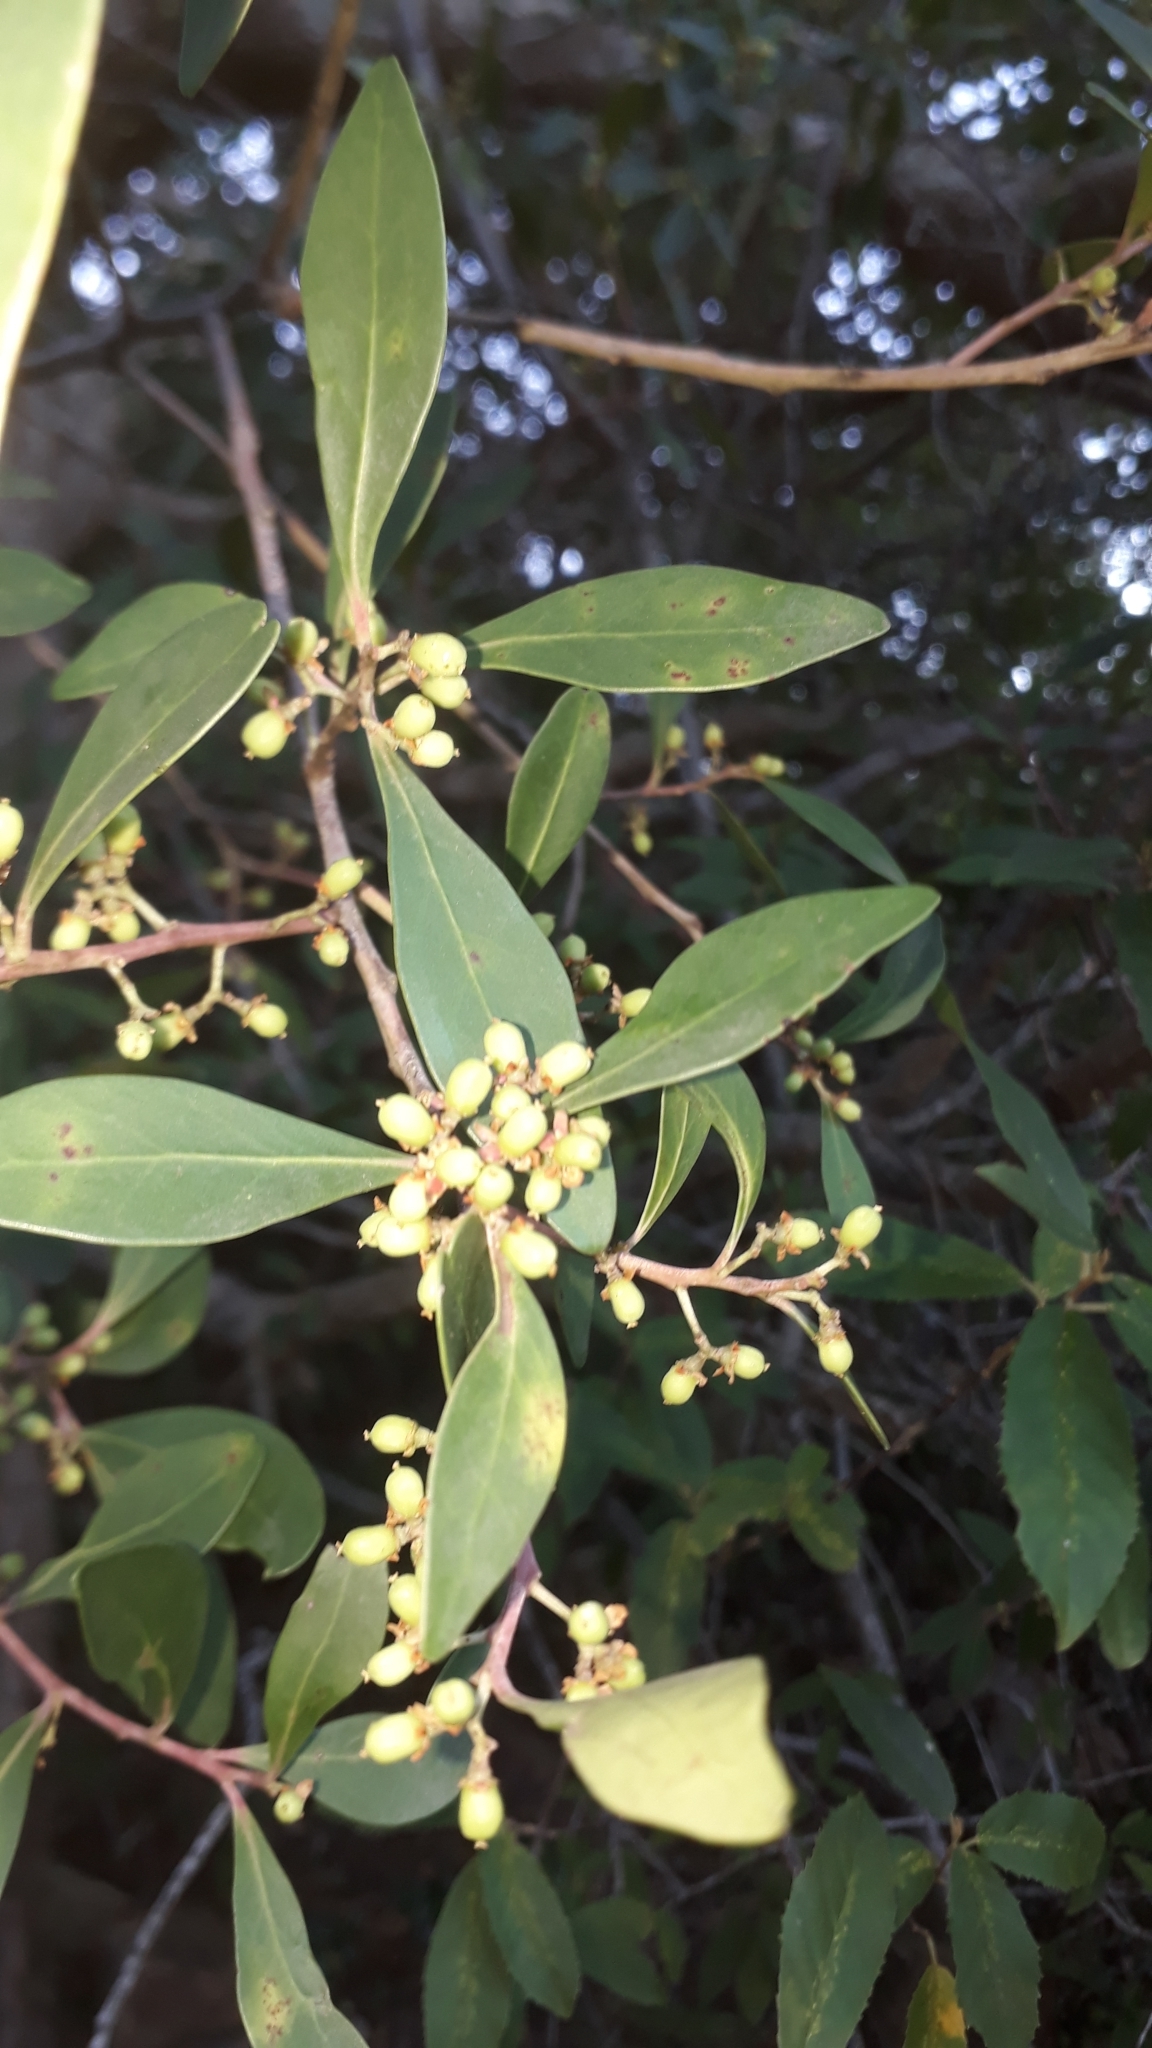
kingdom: Plantae
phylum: Tracheophyta
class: Magnoliopsida
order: Celastrales
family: Celastraceae
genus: Gymnosporia
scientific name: Gymnosporia laurina
